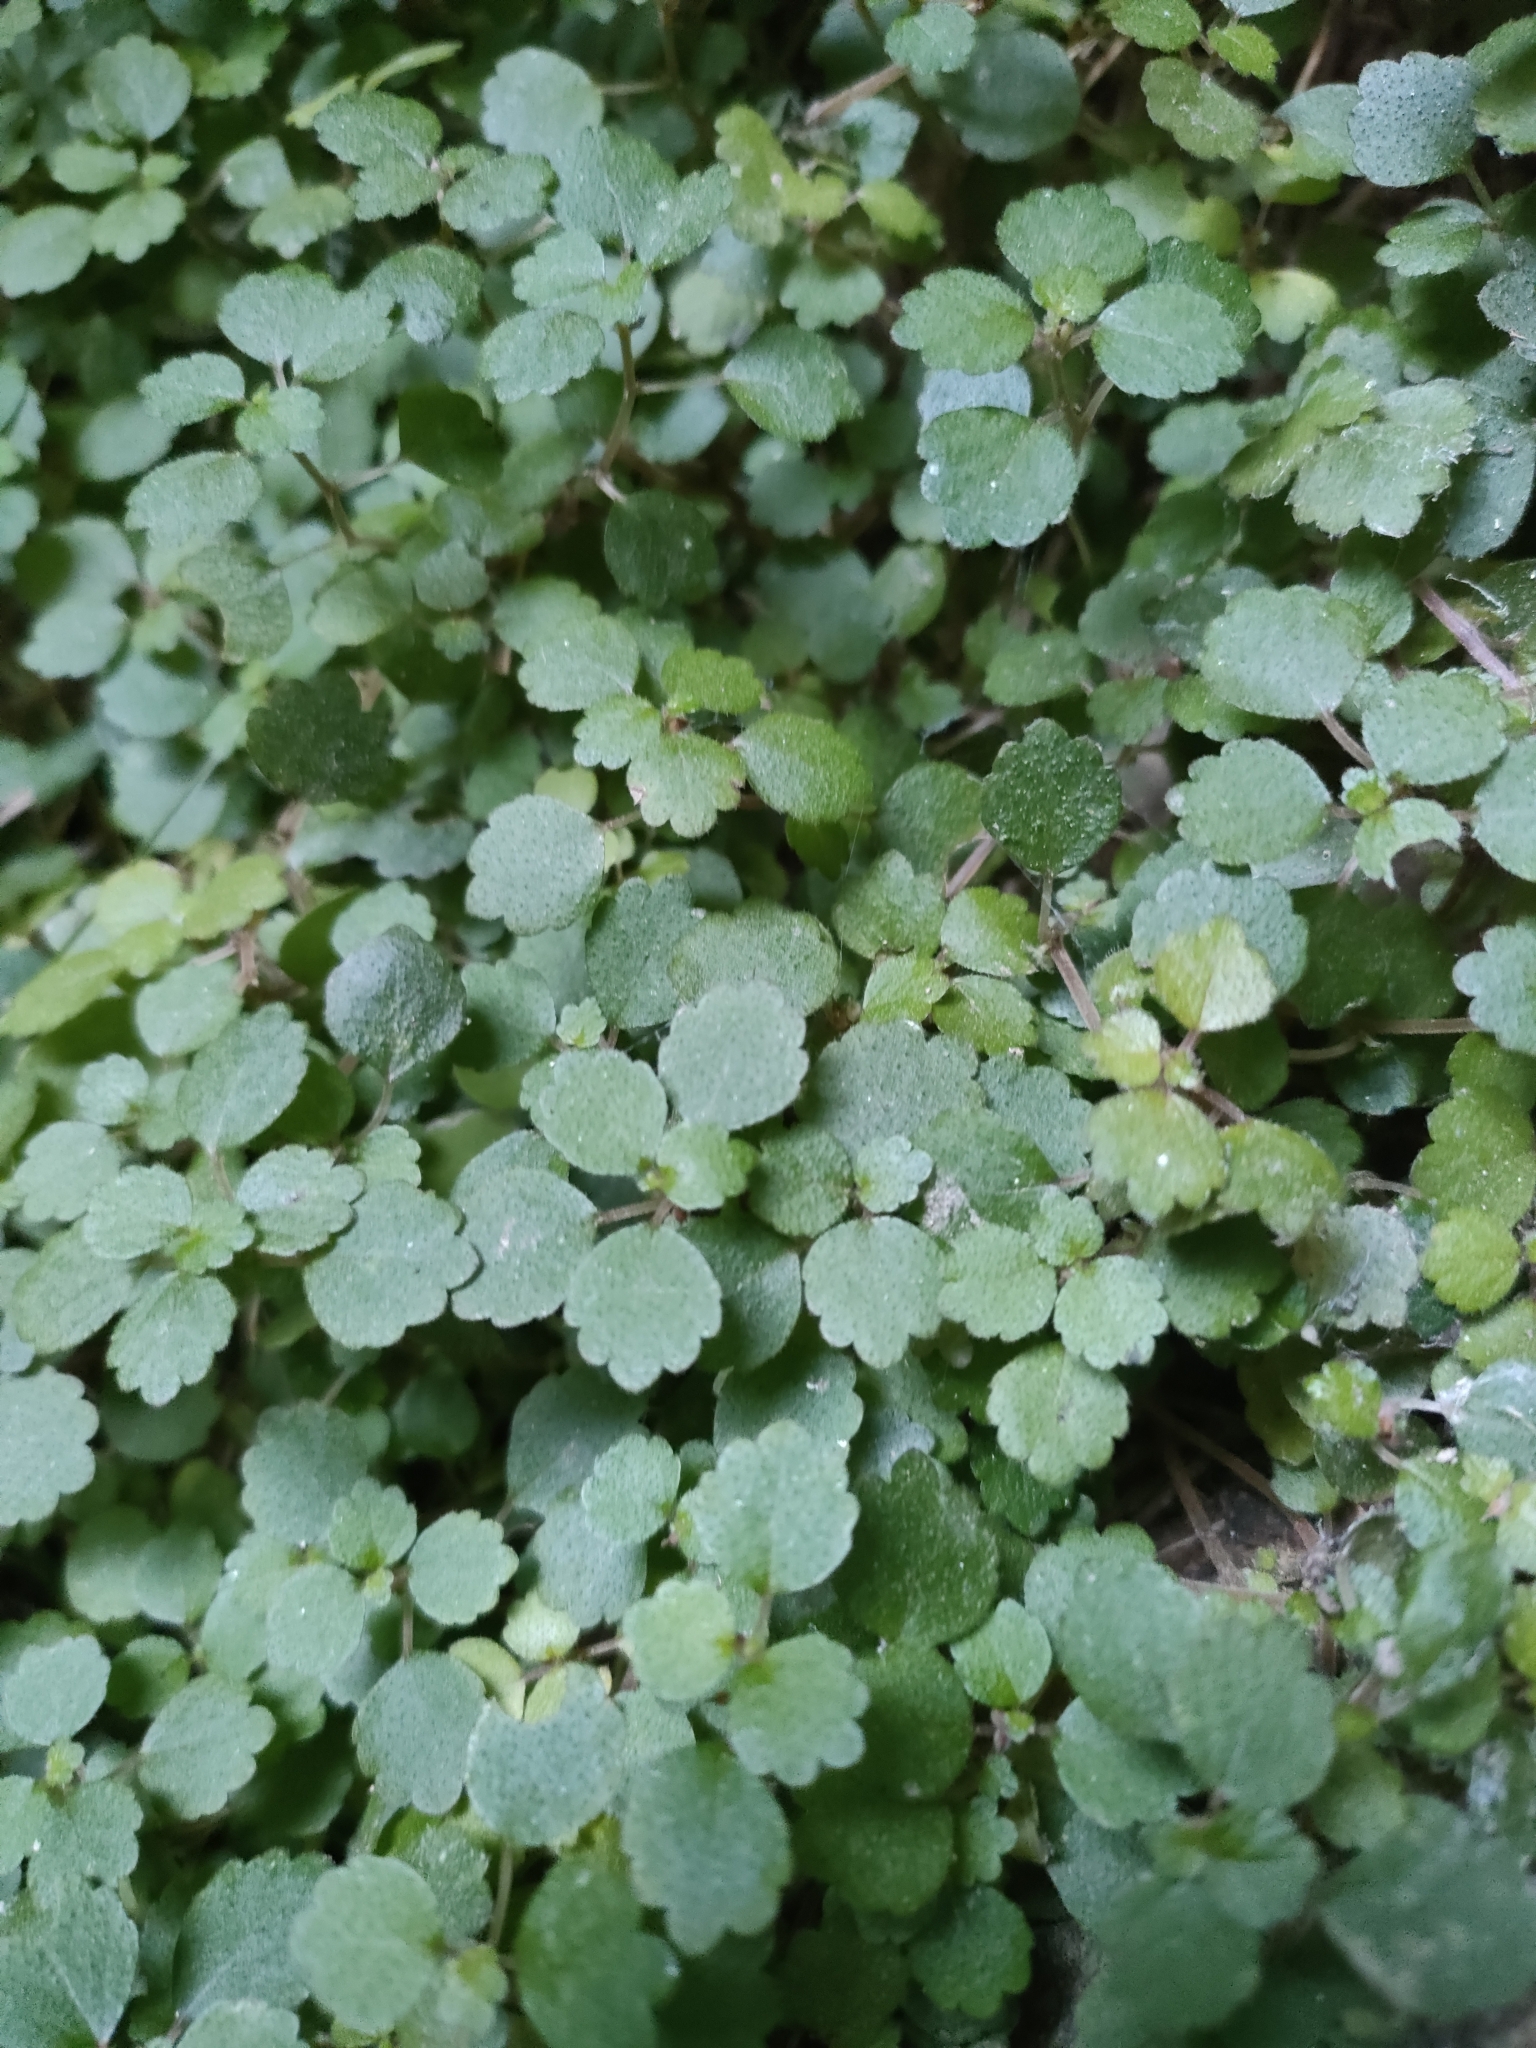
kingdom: Plantae
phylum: Tracheophyta
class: Magnoliopsida
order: Rosales
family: Urticaceae
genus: Australina
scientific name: Australina pusilla
